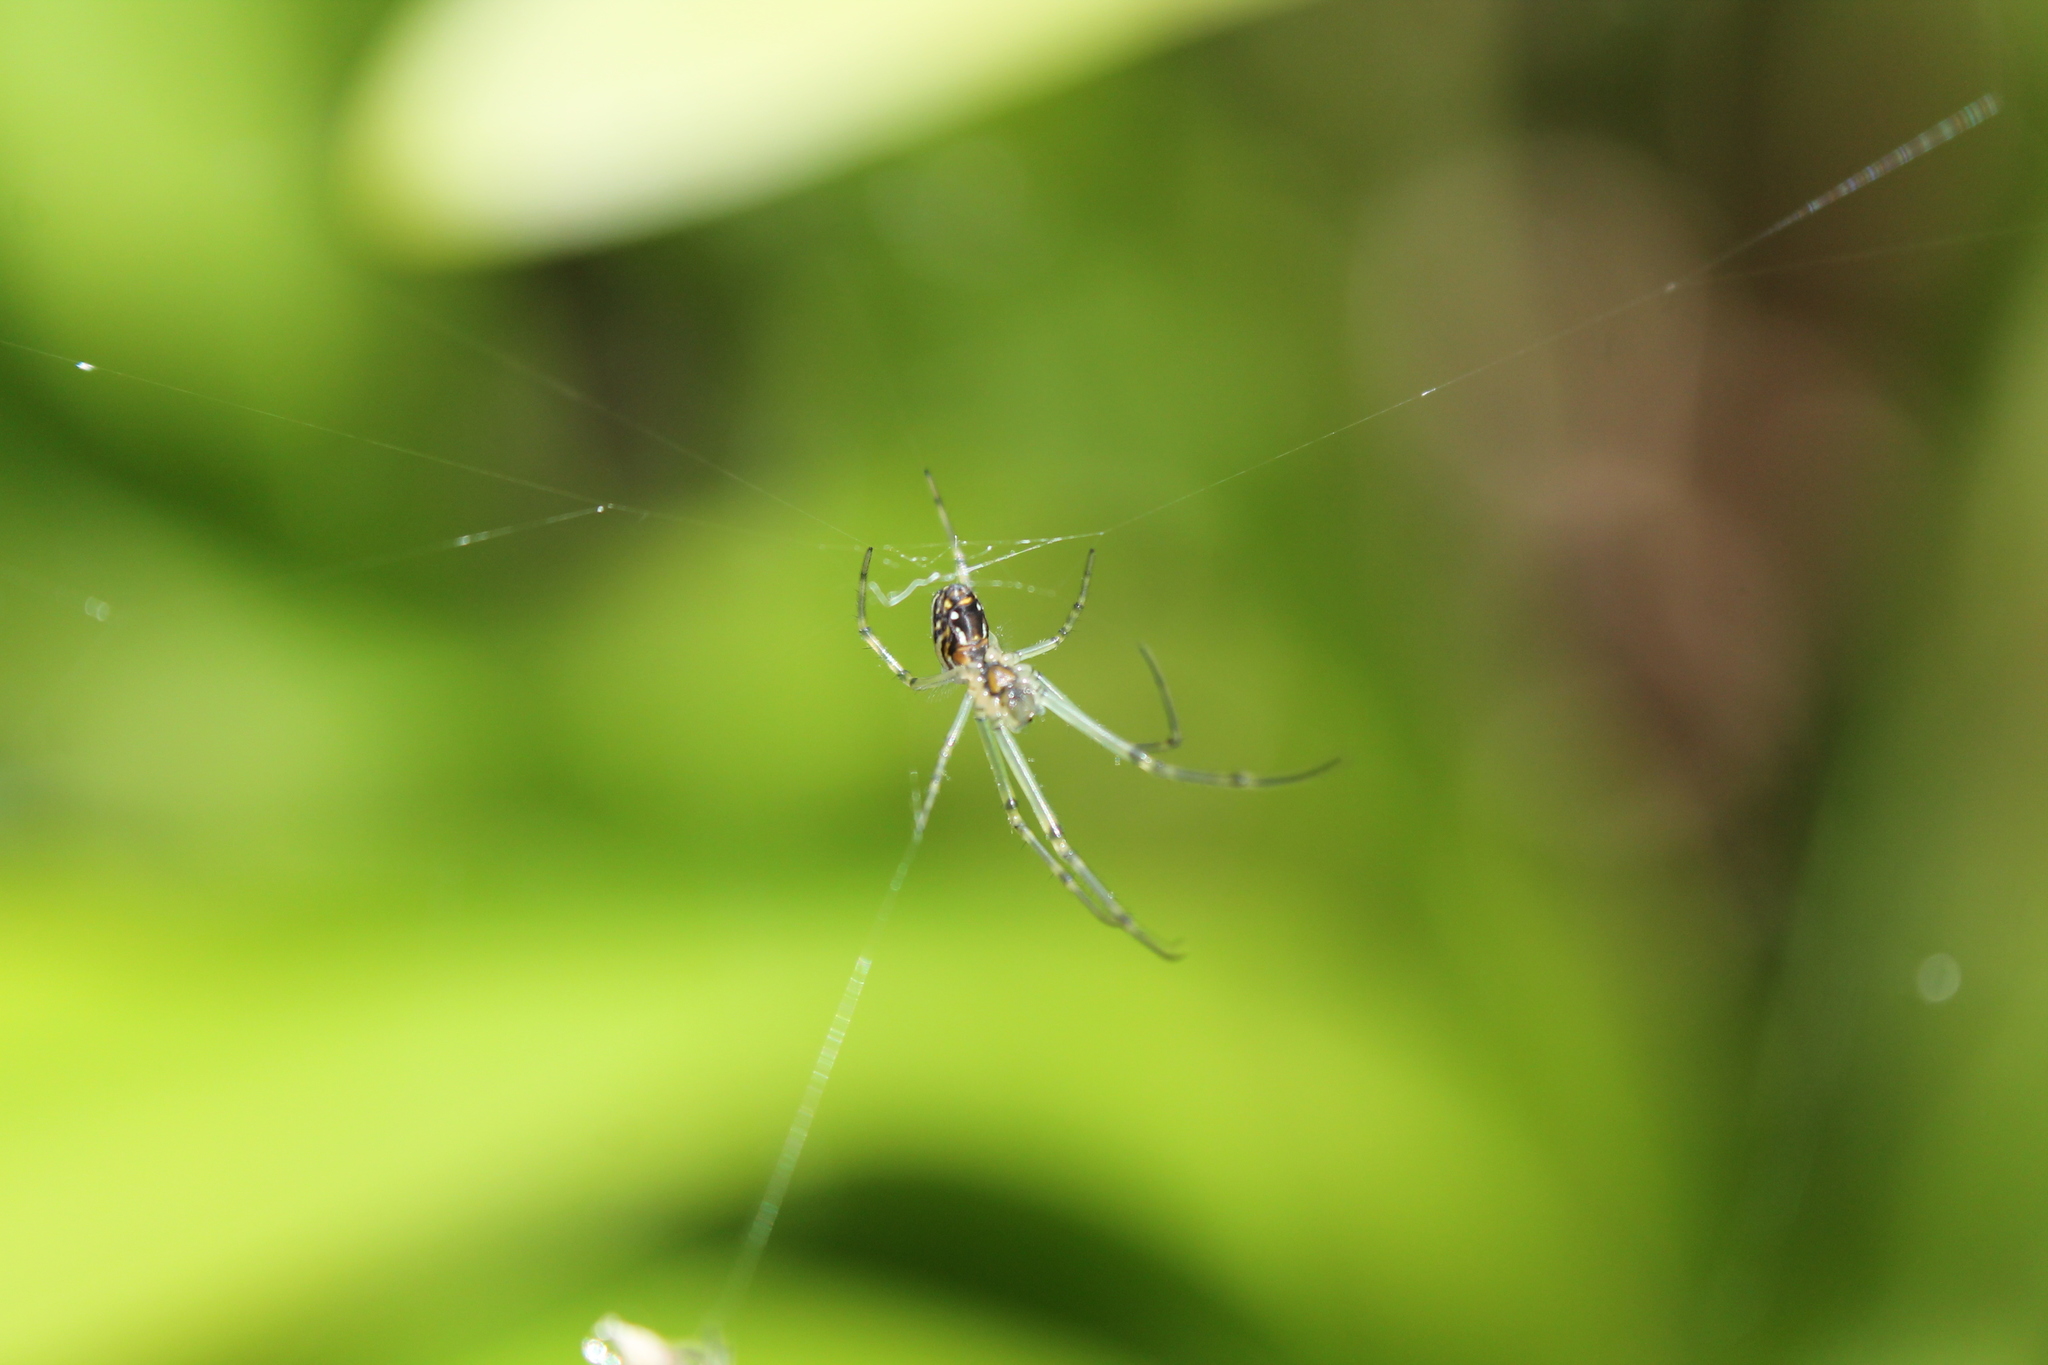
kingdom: Animalia
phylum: Arthropoda
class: Arachnida
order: Araneae
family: Tetragnathidae
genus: Leucauge
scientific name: Leucauge dromedaria
